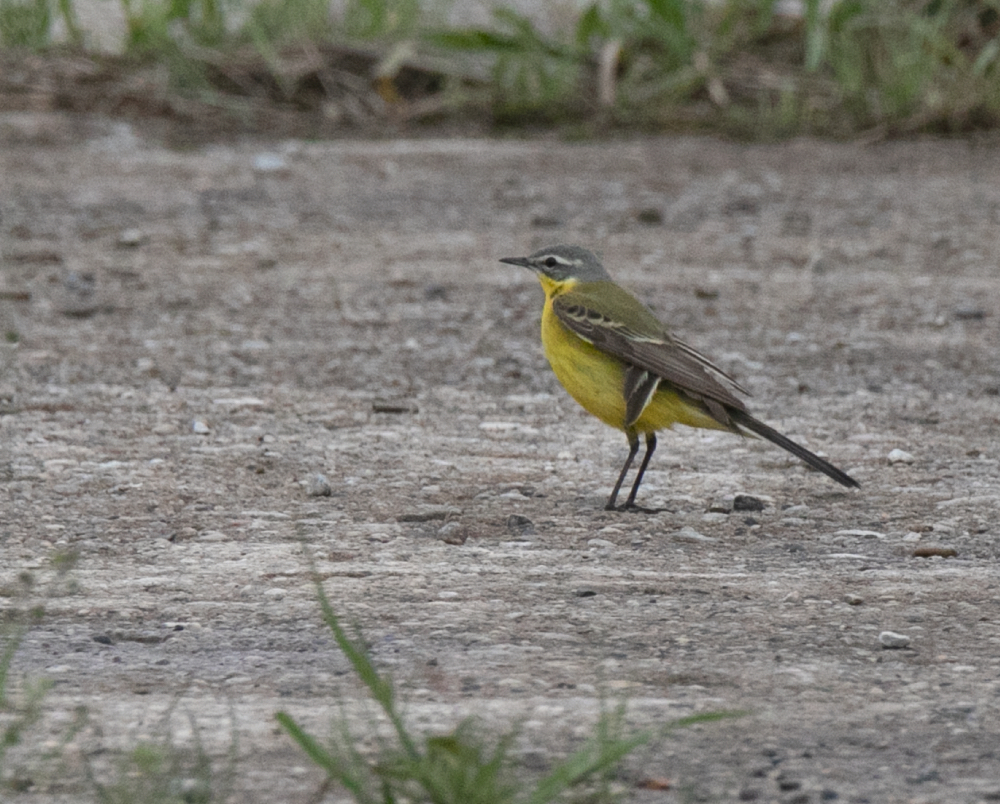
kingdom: Animalia
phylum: Chordata
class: Aves
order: Passeriformes
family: Motacillidae
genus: Motacilla
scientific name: Motacilla flava
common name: Western yellow wagtail
